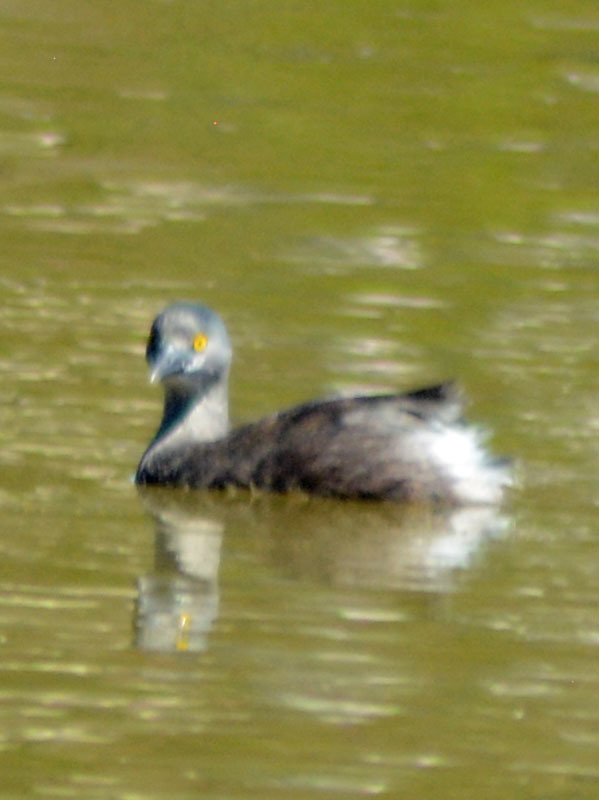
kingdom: Animalia
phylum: Chordata
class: Aves
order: Podicipediformes
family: Podicipedidae
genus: Tachybaptus
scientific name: Tachybaptus dominicus
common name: Least grebe
